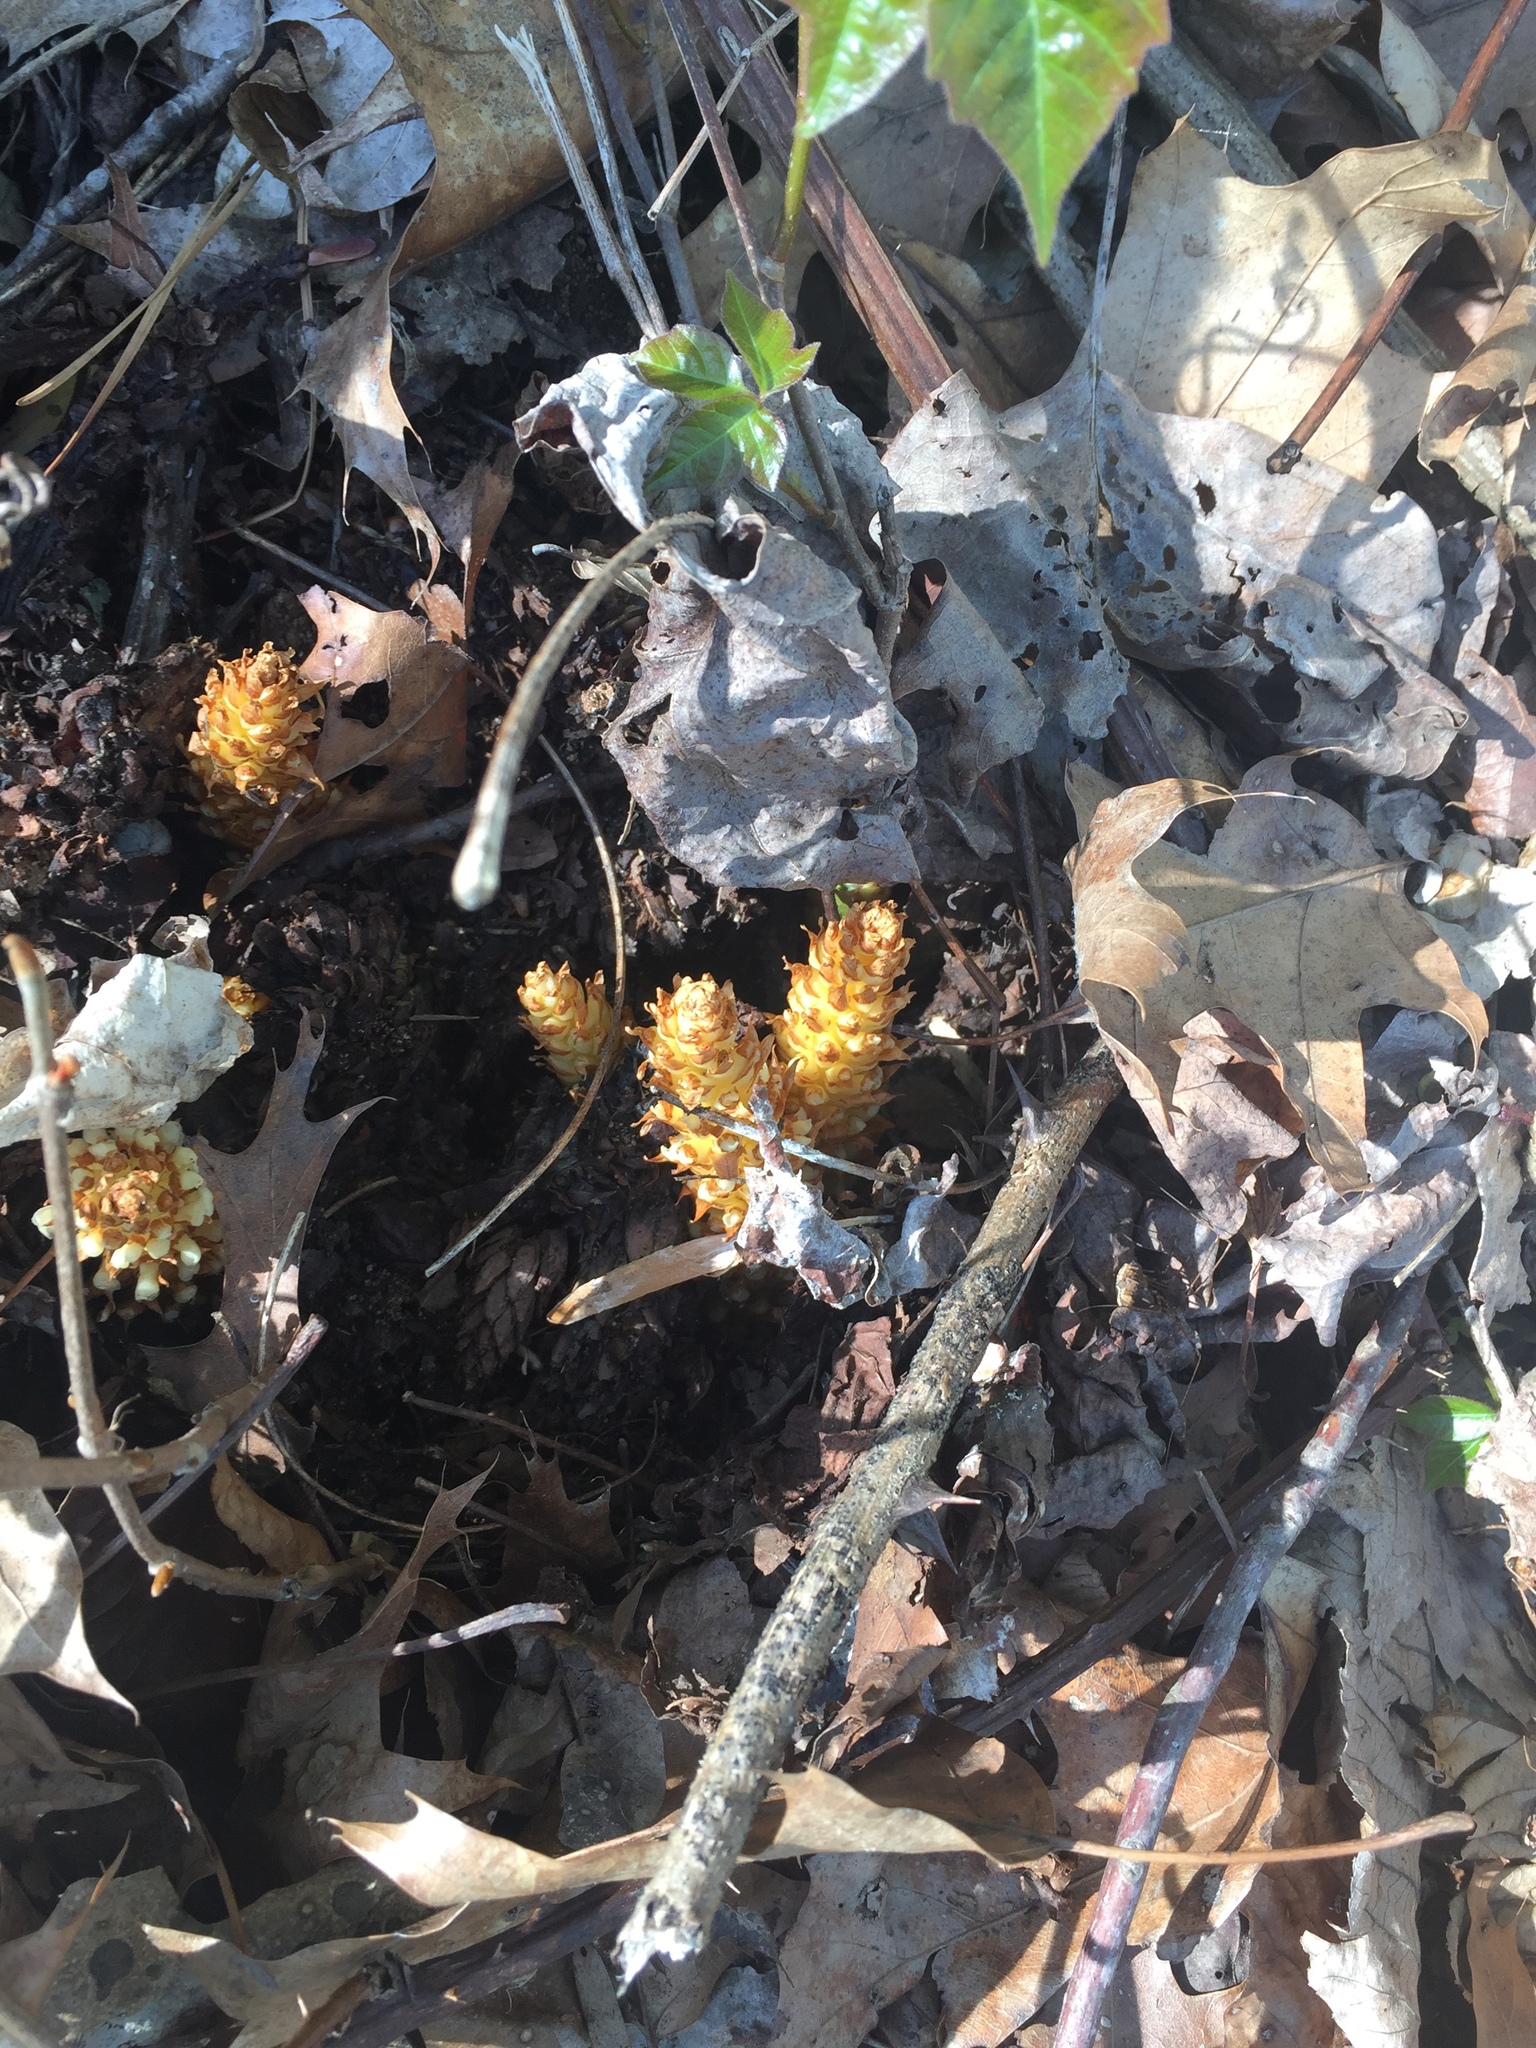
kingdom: Plantae
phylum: Tracheophyta
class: Magnoliopsida
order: Lamiales
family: Orobanchaceae
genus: Conopholis
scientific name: Conopholis americana
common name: American cancer-root
